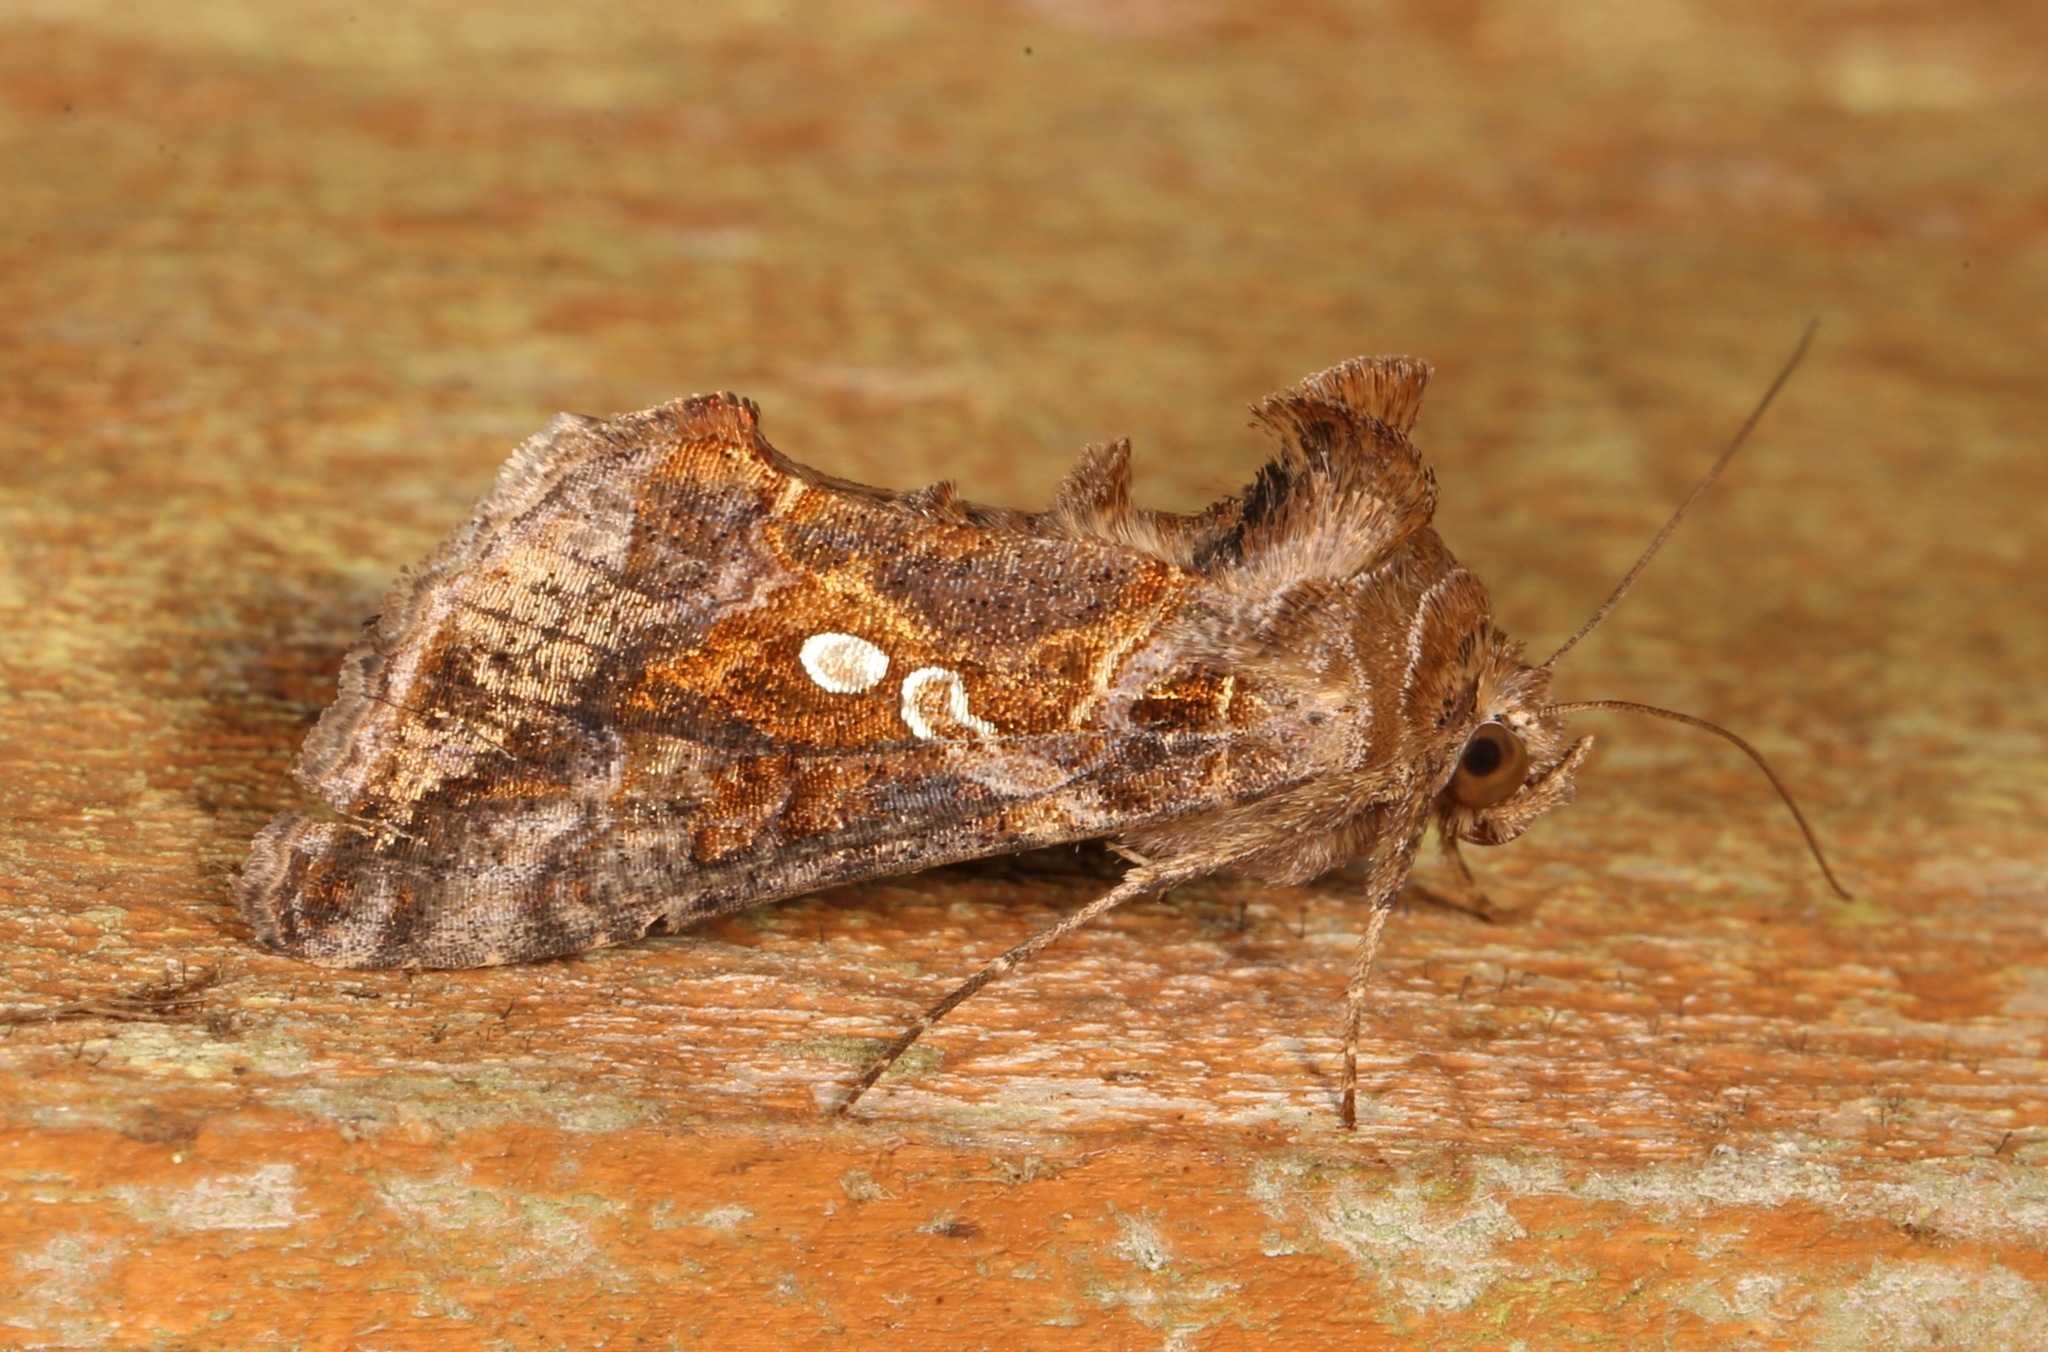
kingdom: Animalia
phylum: Arthropoda
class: Insecta
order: Lepidoptera
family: Noctuidae
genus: Chrysodeixis
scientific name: Chrysodeixis includens
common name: Cutworm moth
